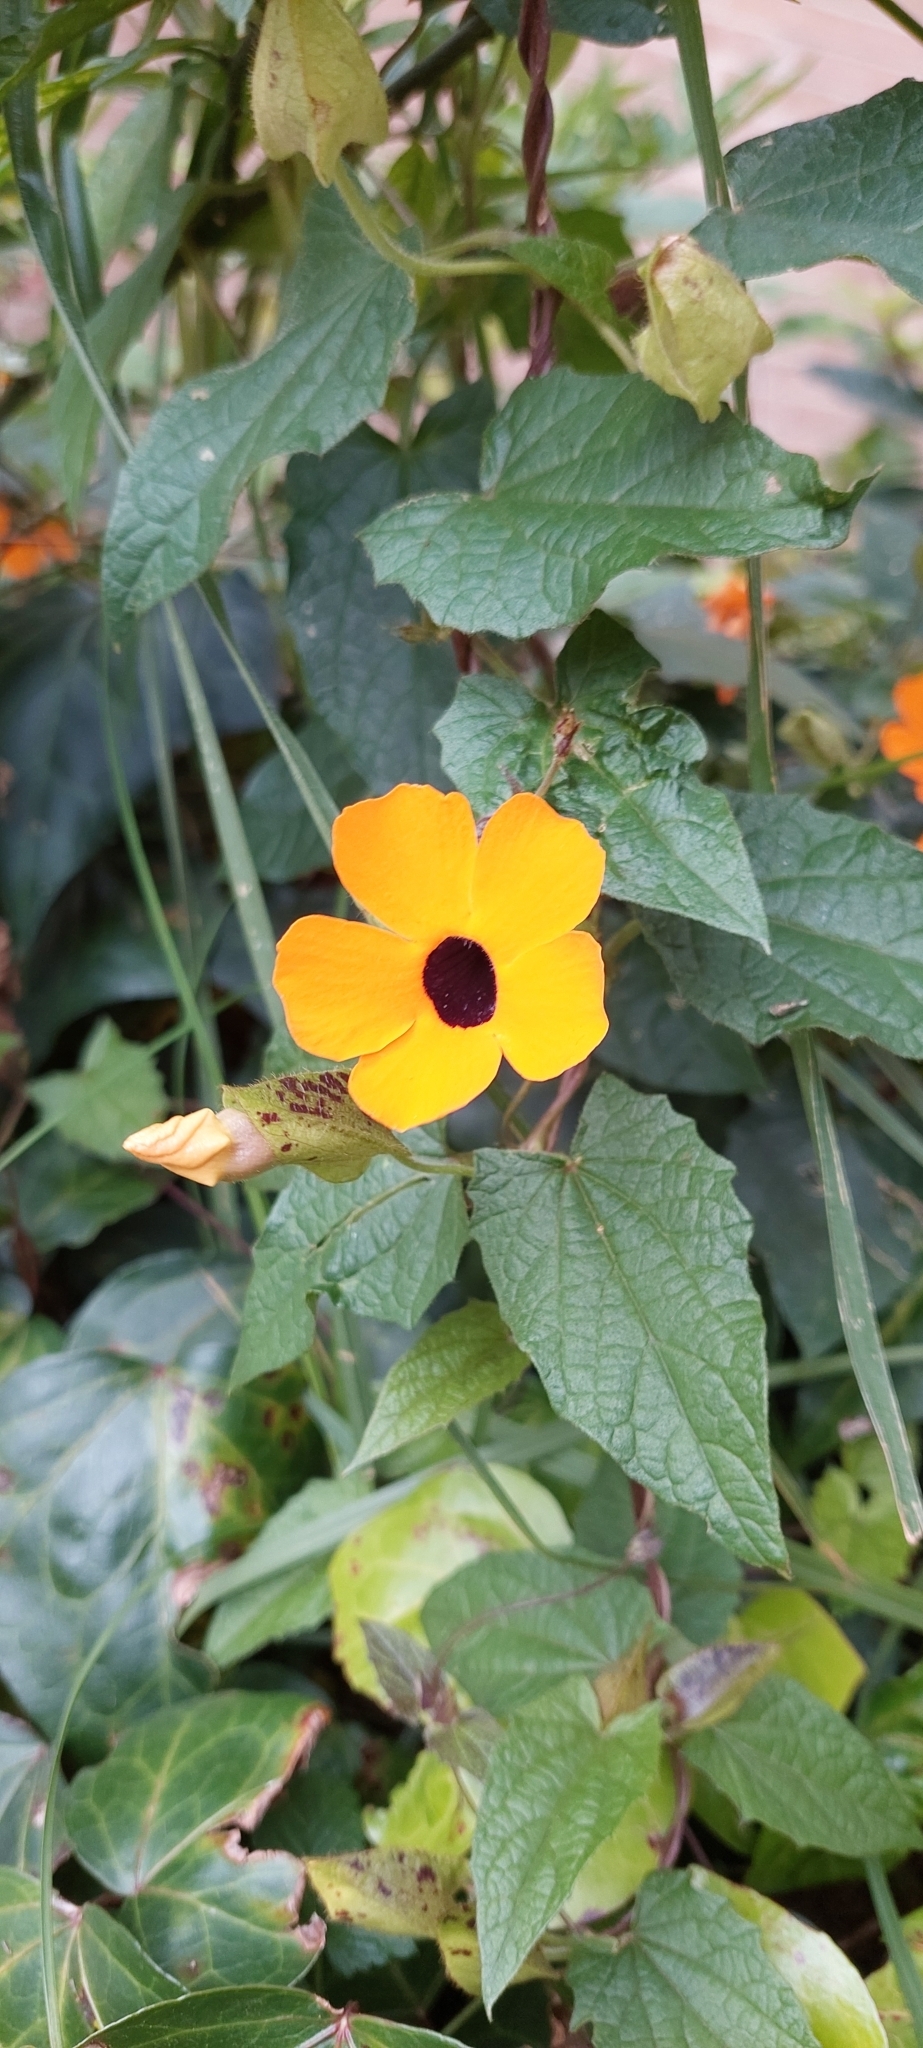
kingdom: Plantae
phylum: Tracheophyta
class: Magnoliopsida
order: Lamiales
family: Acanthaceae
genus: Thunbergia
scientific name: Thunbergia alata
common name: Blackeyed susan vine
